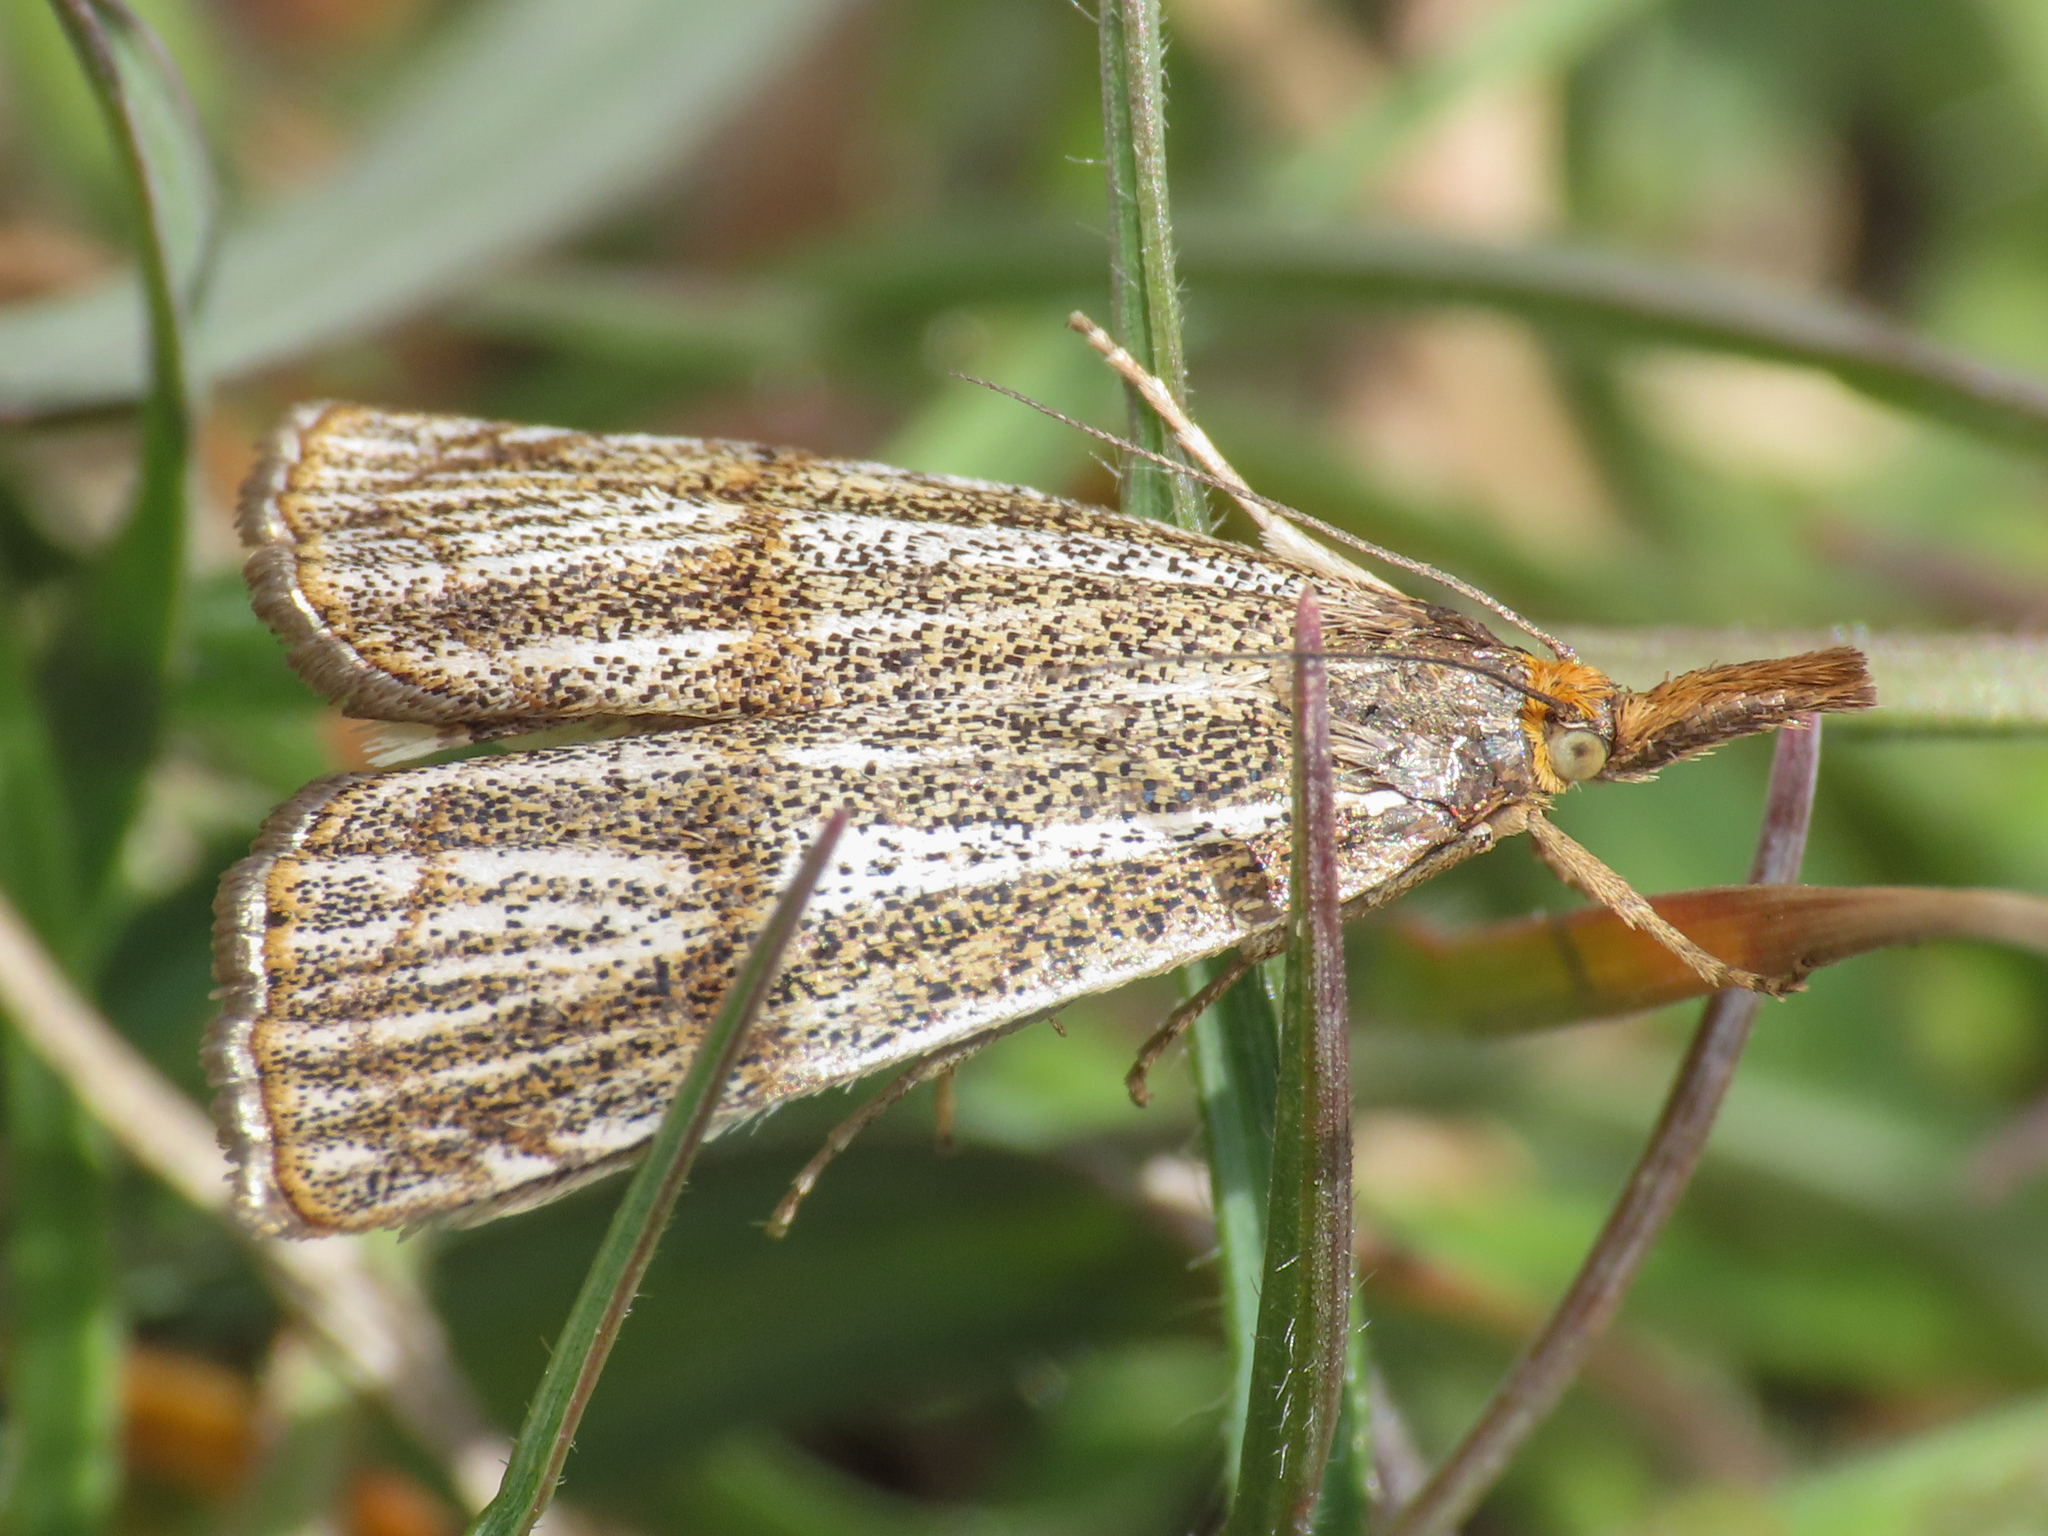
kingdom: Animalia
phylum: Arthropoda
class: Insecta
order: Lepidoptera
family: Crambidae
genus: Thisanotia
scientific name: Thisanotia chrysonuchella
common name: Powdered grass-veneer
